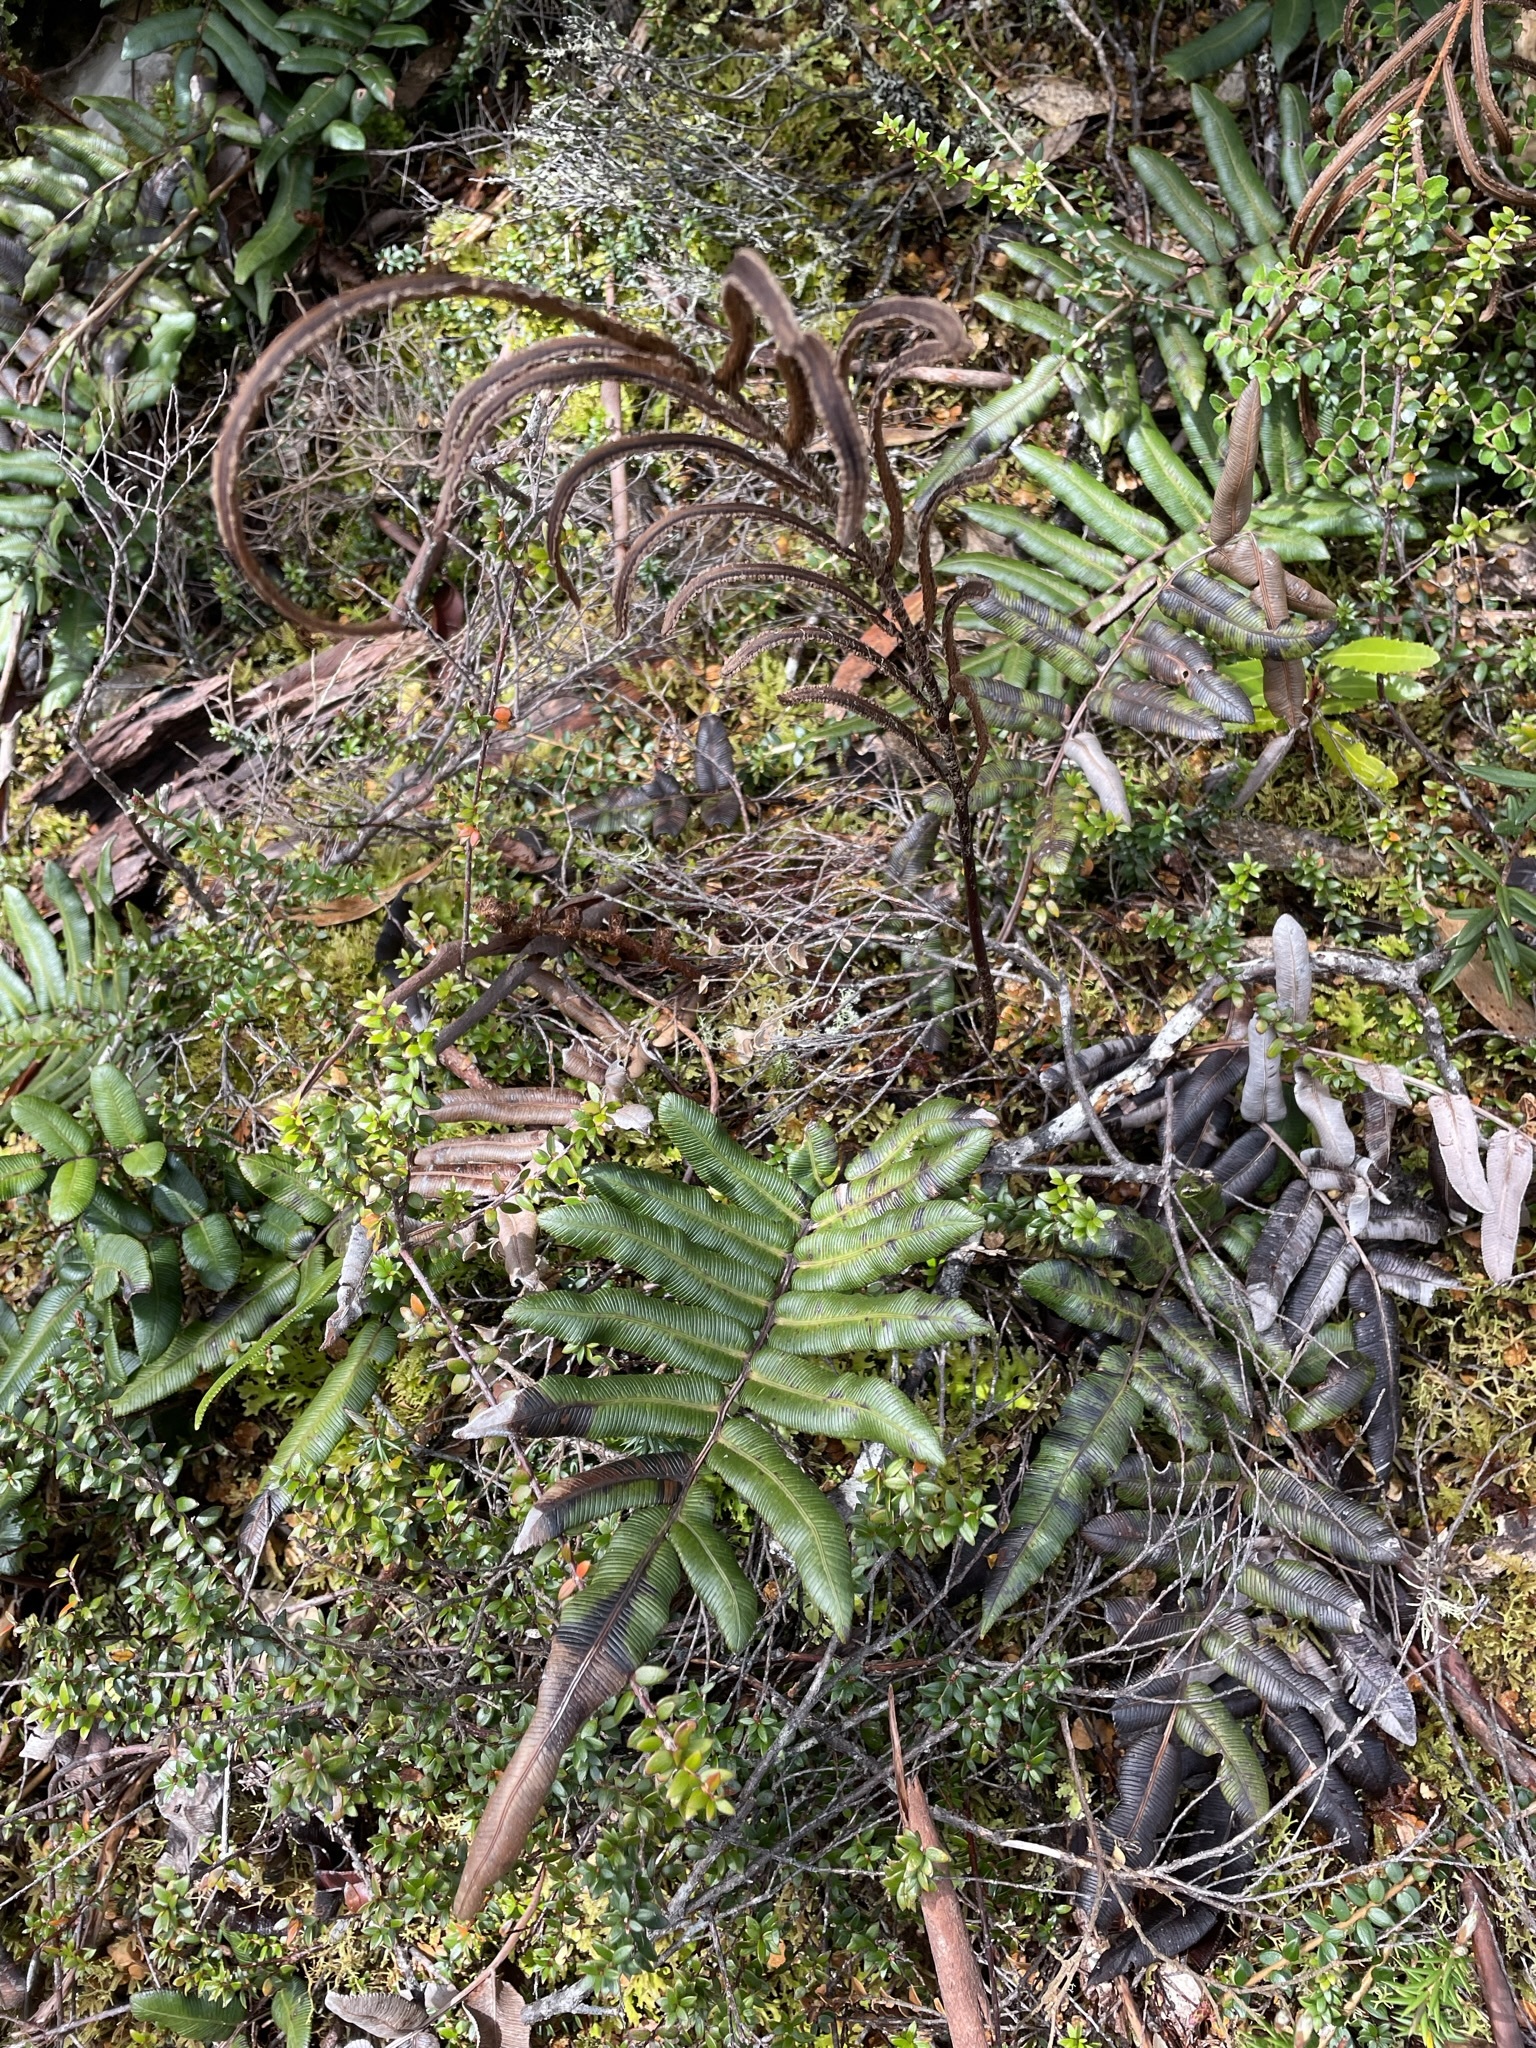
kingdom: Plantae
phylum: Tracheophyta
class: Polypodiopsida
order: Polypodiales
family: Blechnaceae
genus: Parablechnum
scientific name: Parablechnum wattsii
